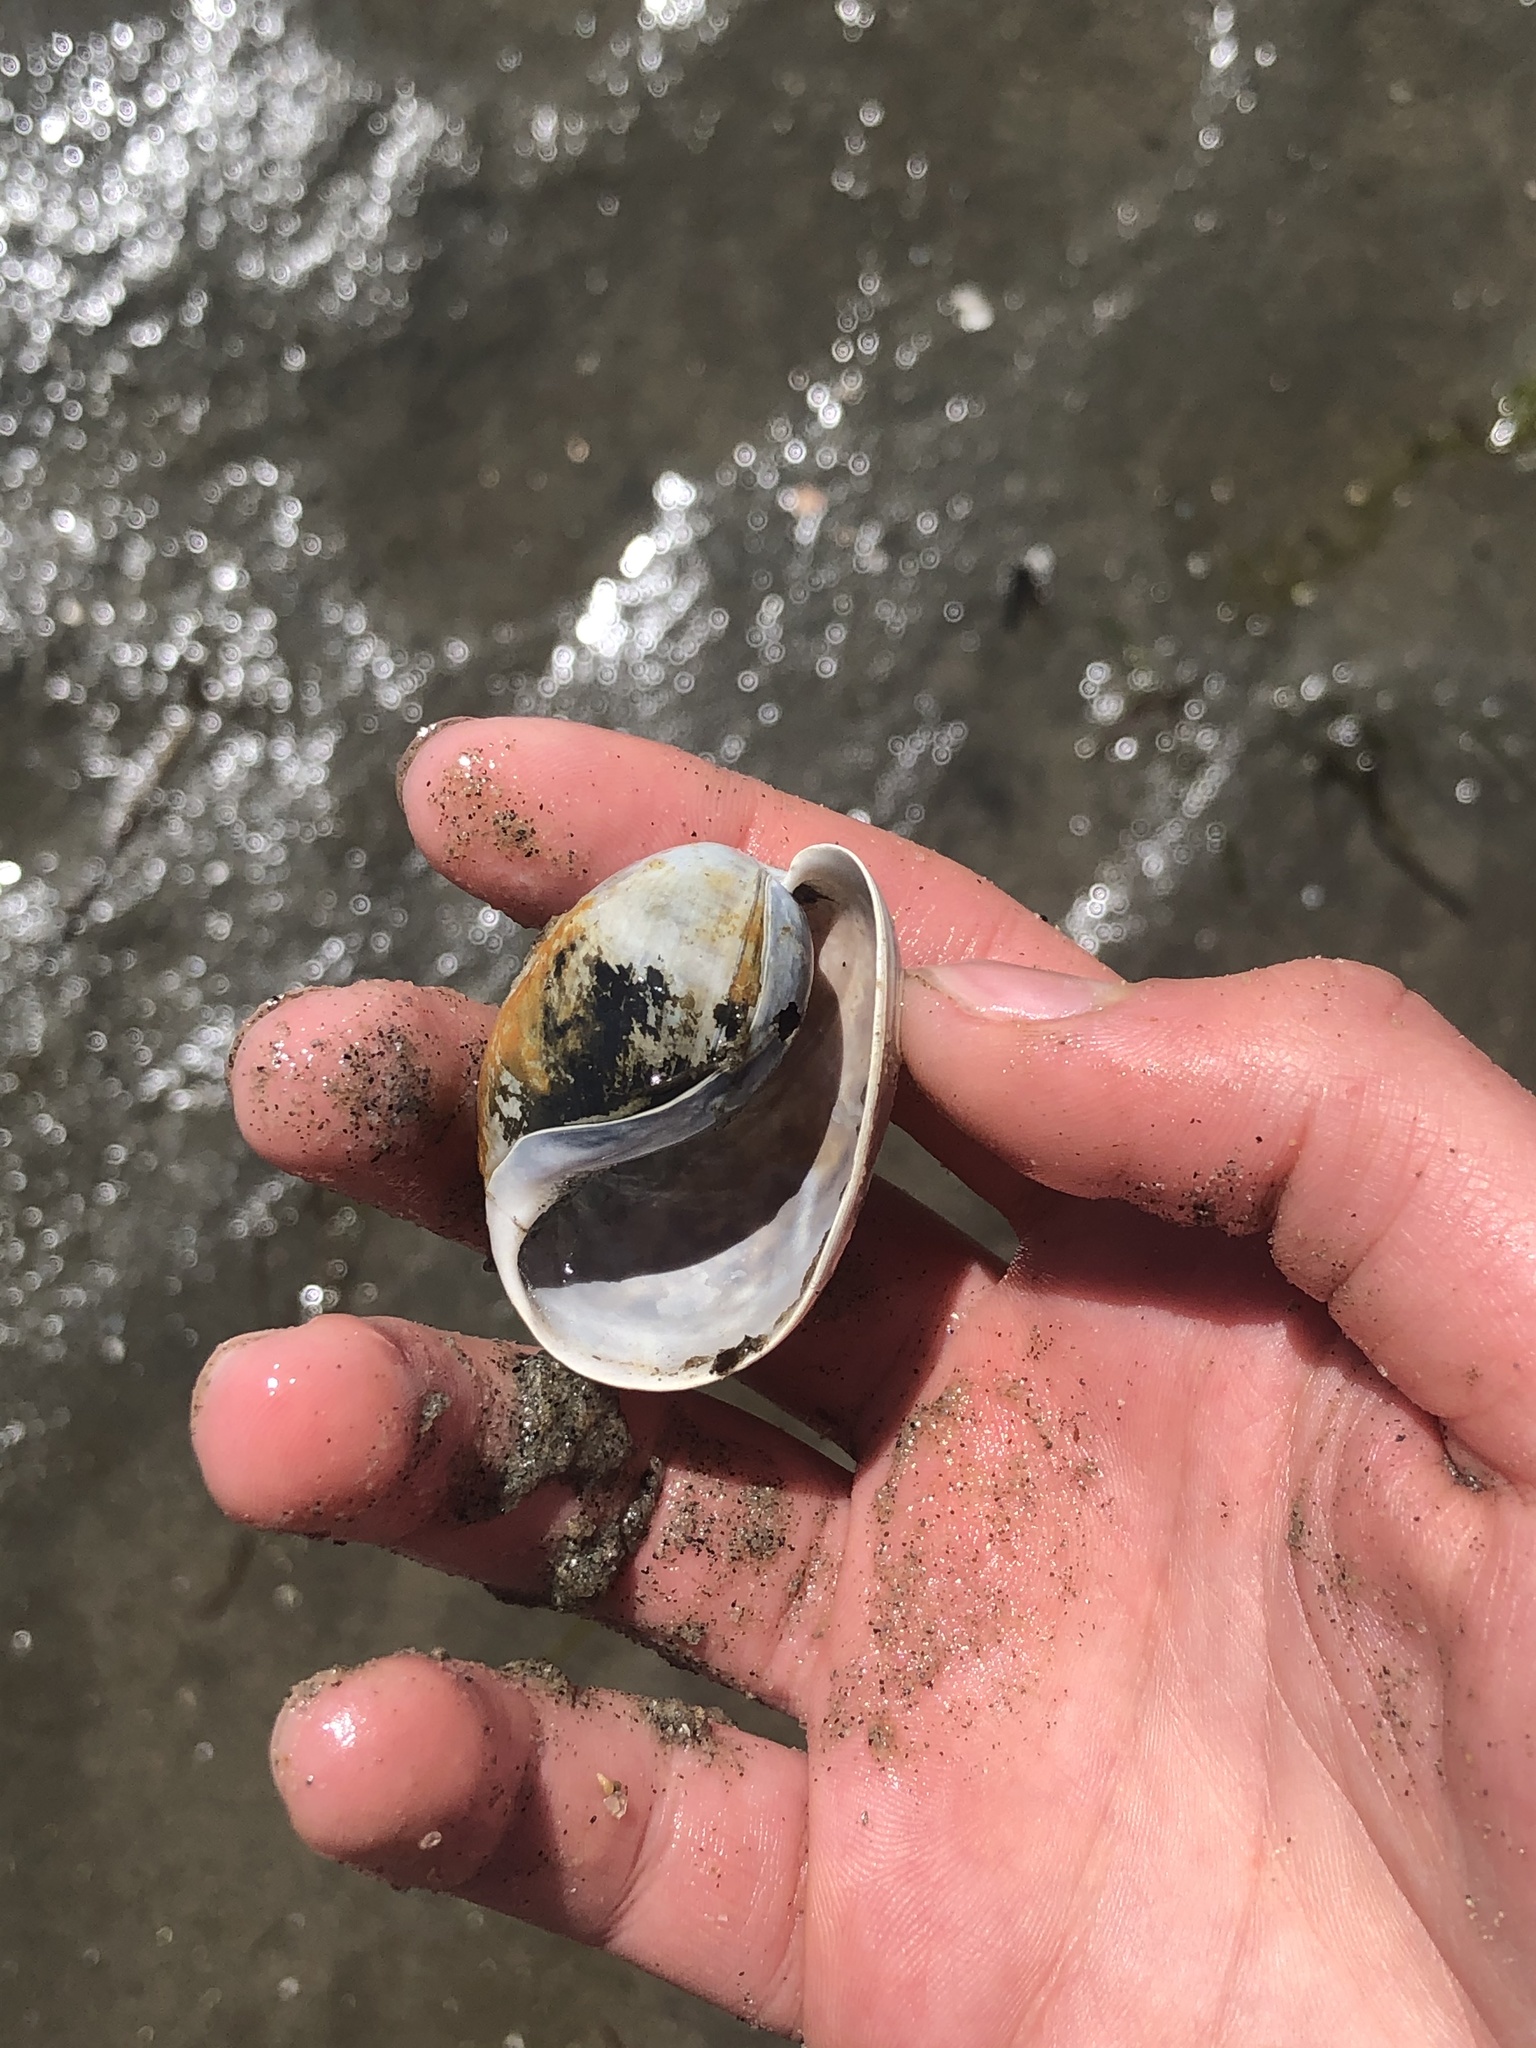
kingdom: Animalia
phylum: Mollusca
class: Gastropoda
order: Cephalaspidea
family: Bullidae
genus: Bulla
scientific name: Bulla gouldiana
